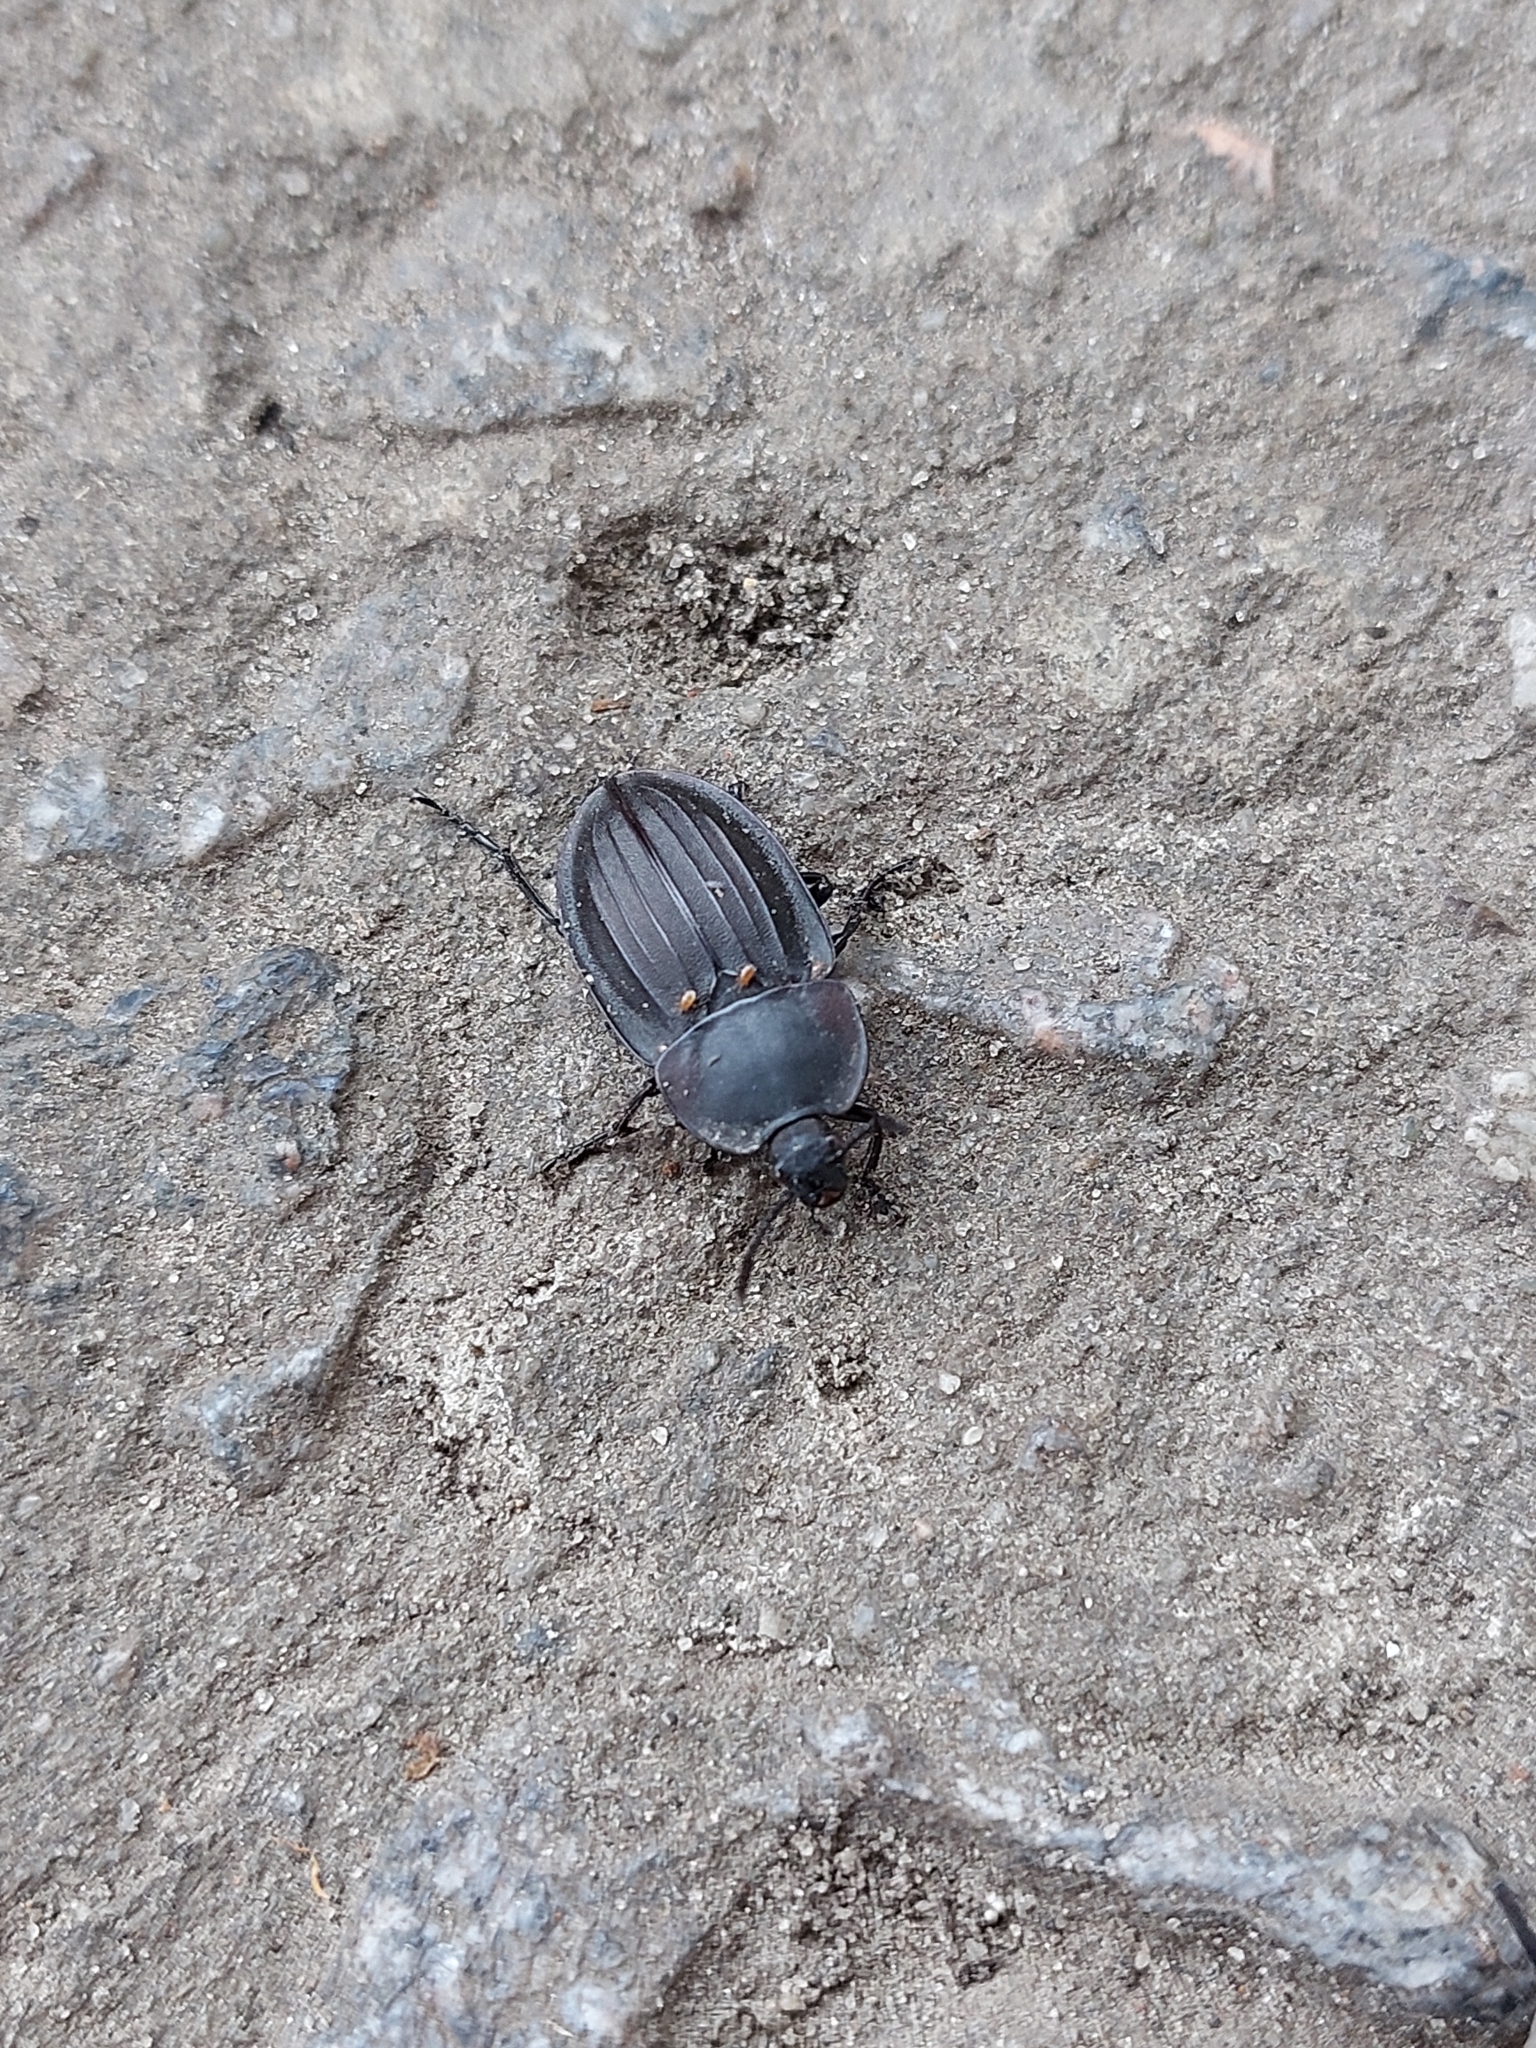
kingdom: Animalia
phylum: Arthropoda
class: Insecta
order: Coleoptera
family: Staphylinidae
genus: Silpha
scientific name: Silpha carinata
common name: Silphid beetle
